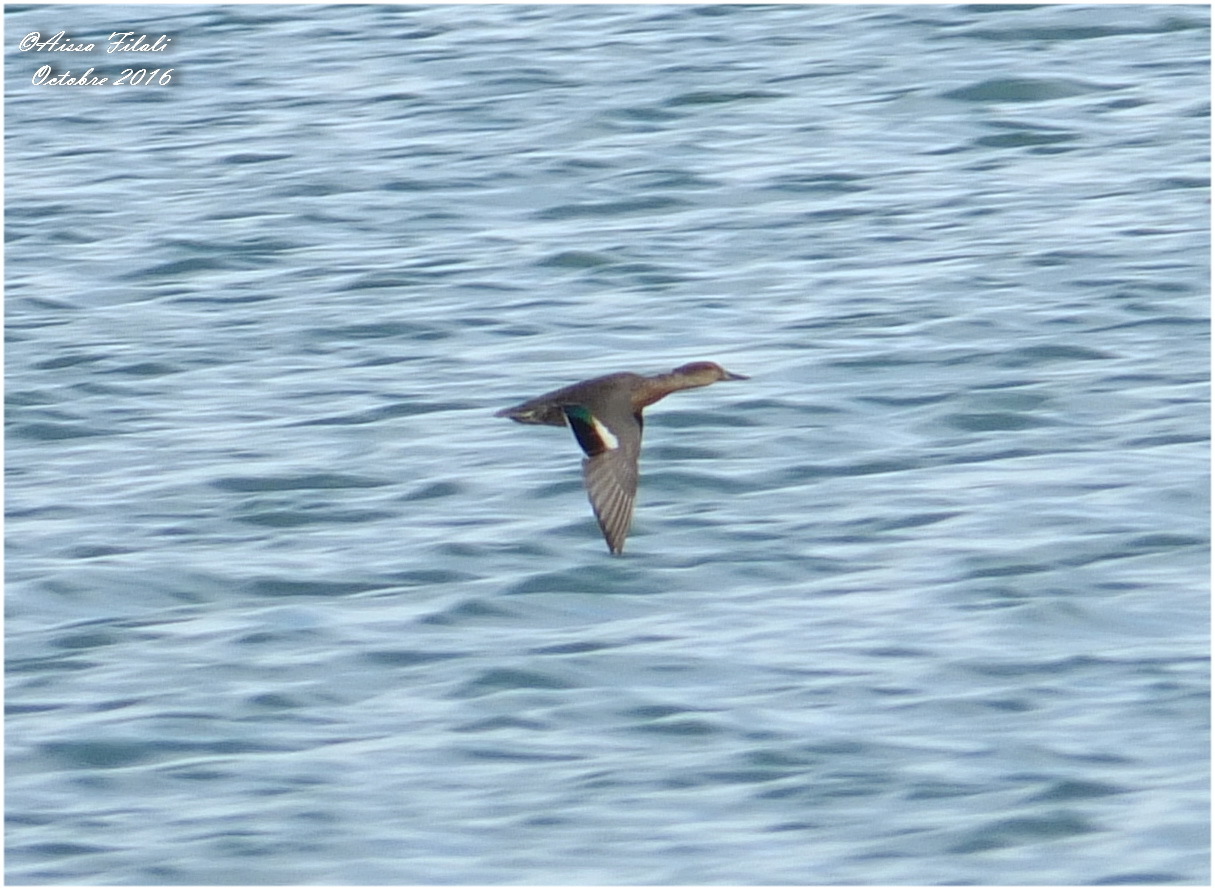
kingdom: Animalia
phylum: Chordata
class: Aves
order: Anseriformes
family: Anatidae
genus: Anas
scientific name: Anas crecca
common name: Eurasian teal
